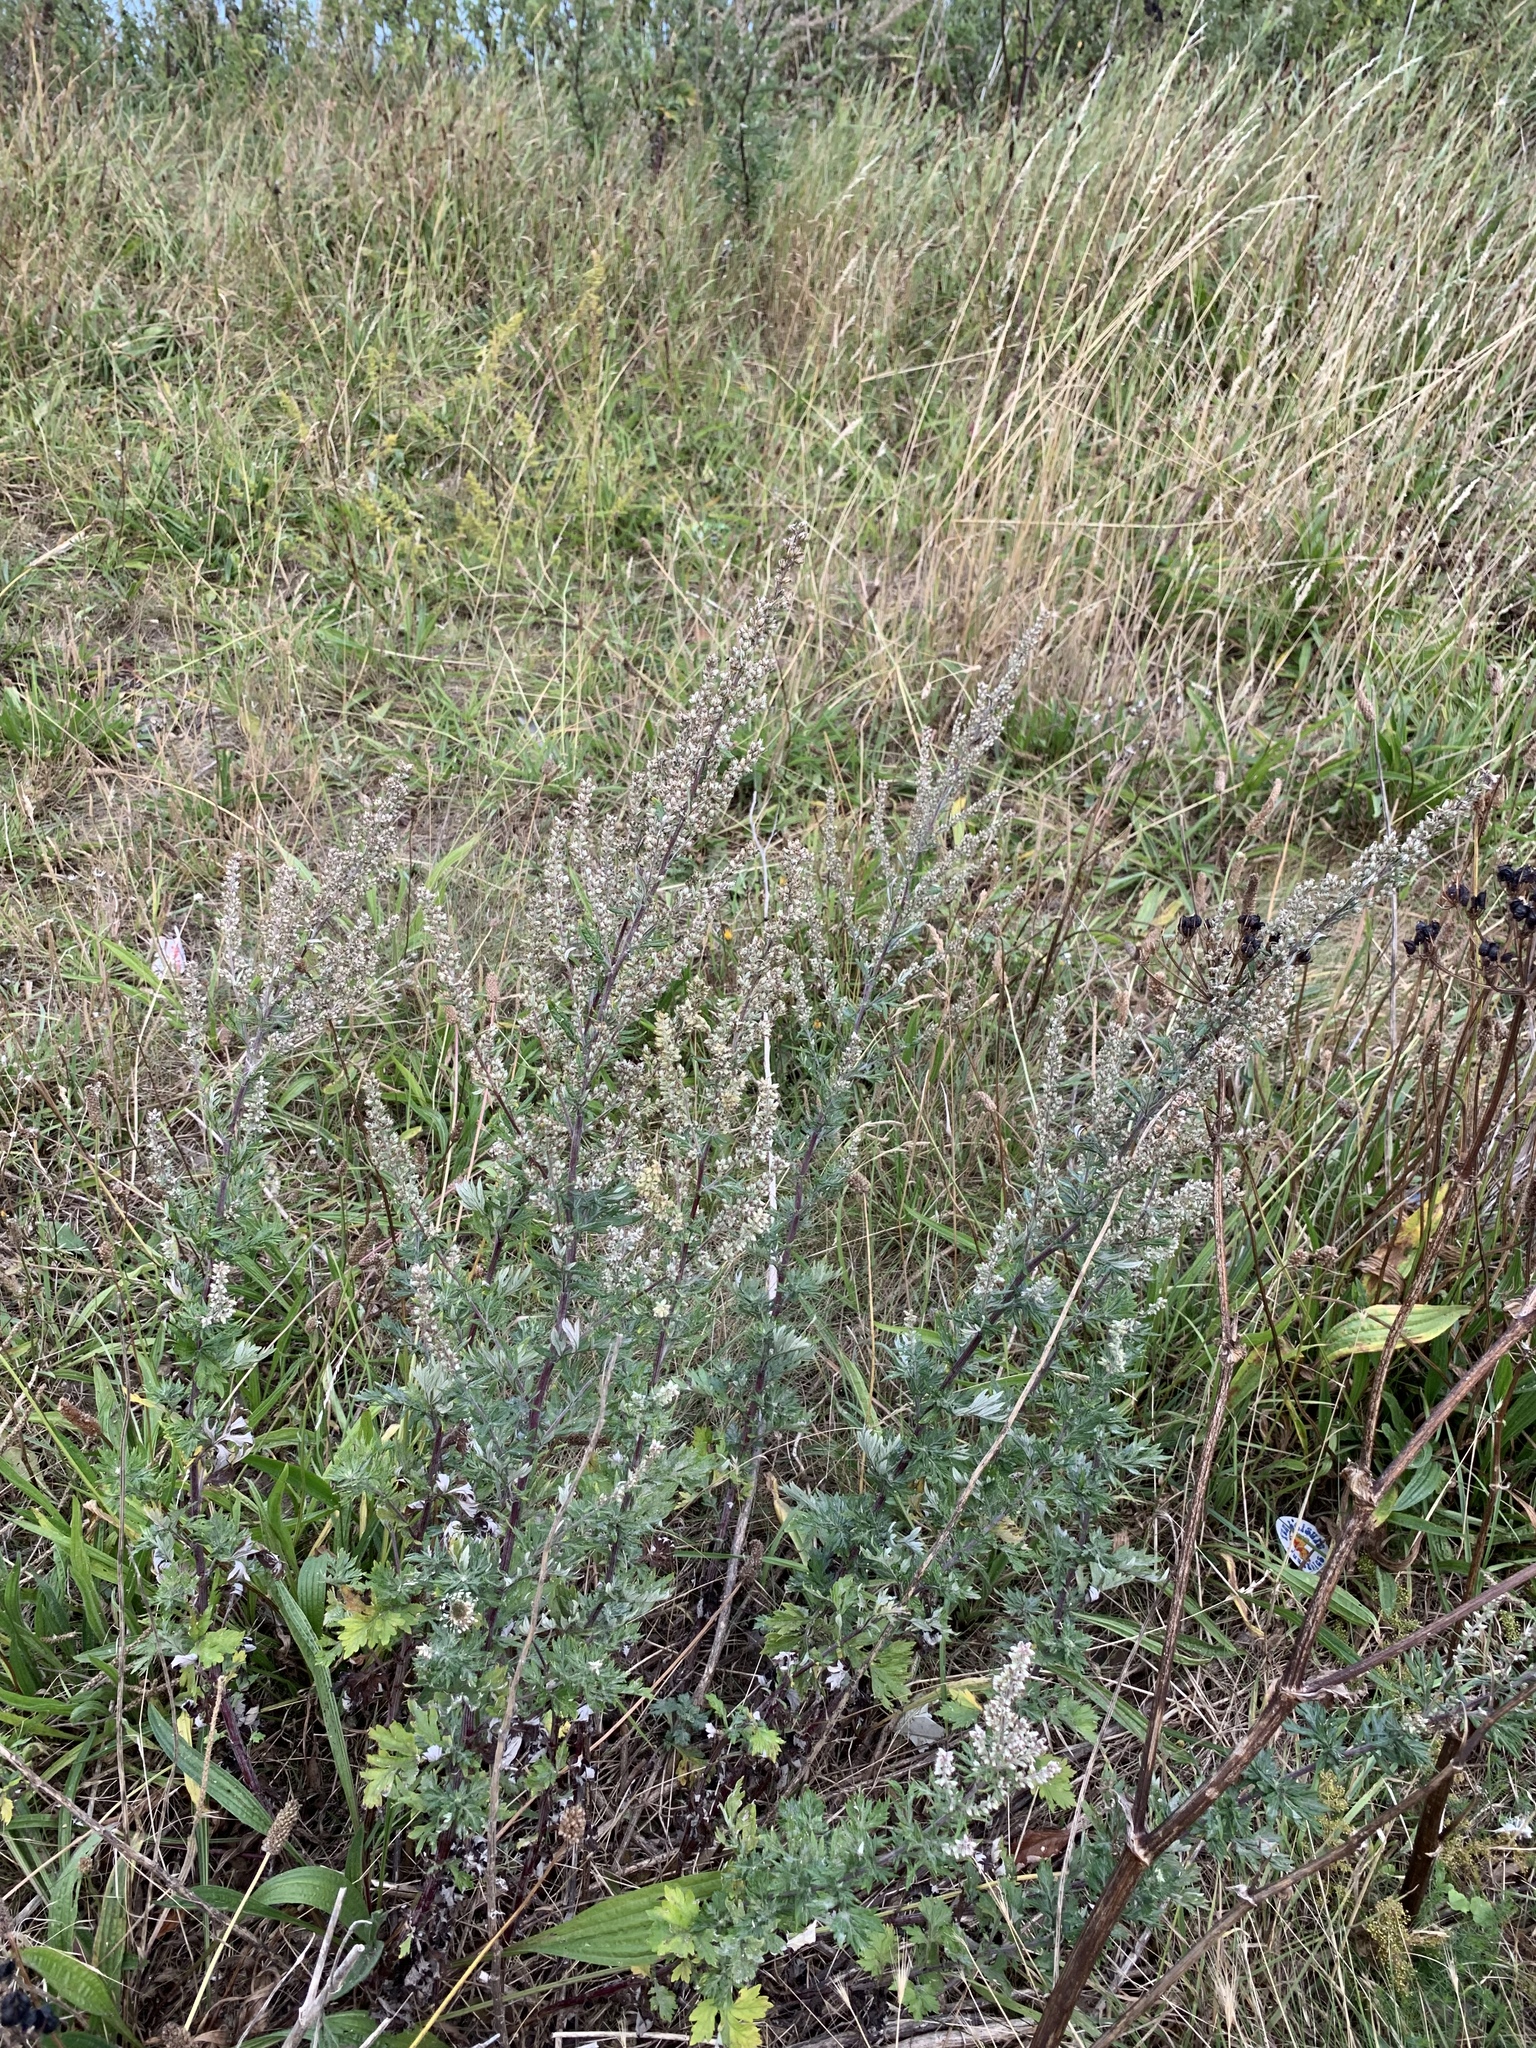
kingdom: Plantae
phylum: Tracheophyta
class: Magnoliopsida
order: Asterales
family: Asteraceae
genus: Artemisia
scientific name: Artemisia vulgaris
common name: Mugwort
